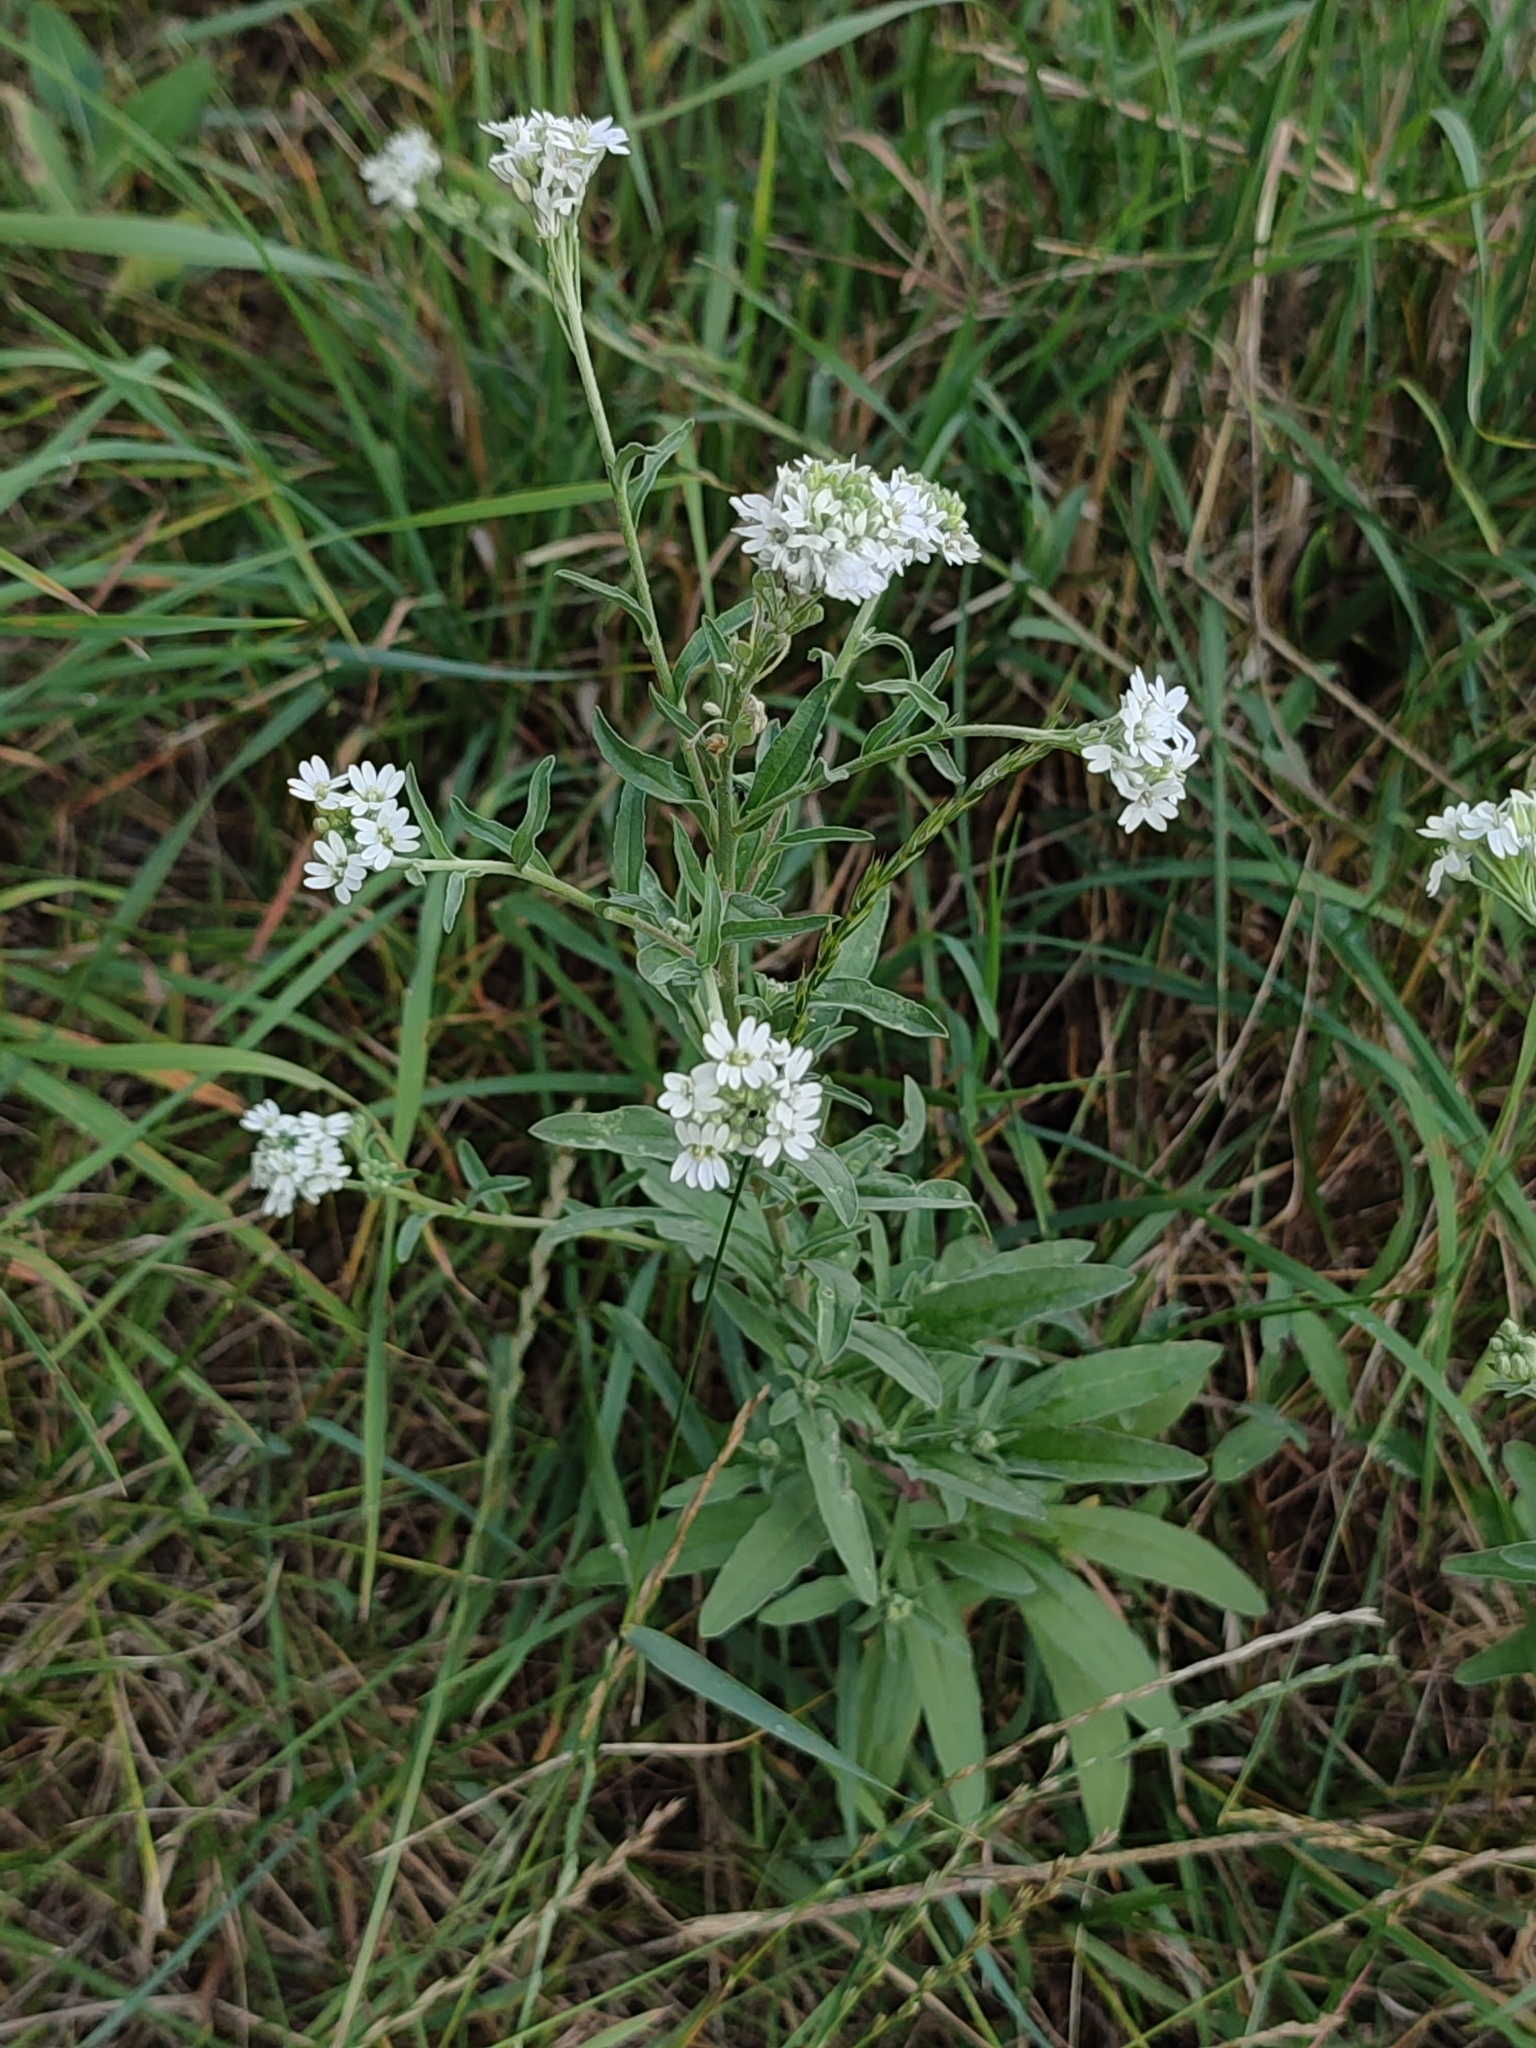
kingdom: Plantae
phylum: Tracheophyta
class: Magnoliopsida
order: Brassicales
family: Brassicaceae
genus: Berteroa
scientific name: Berteroa incana
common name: Hoary alison
